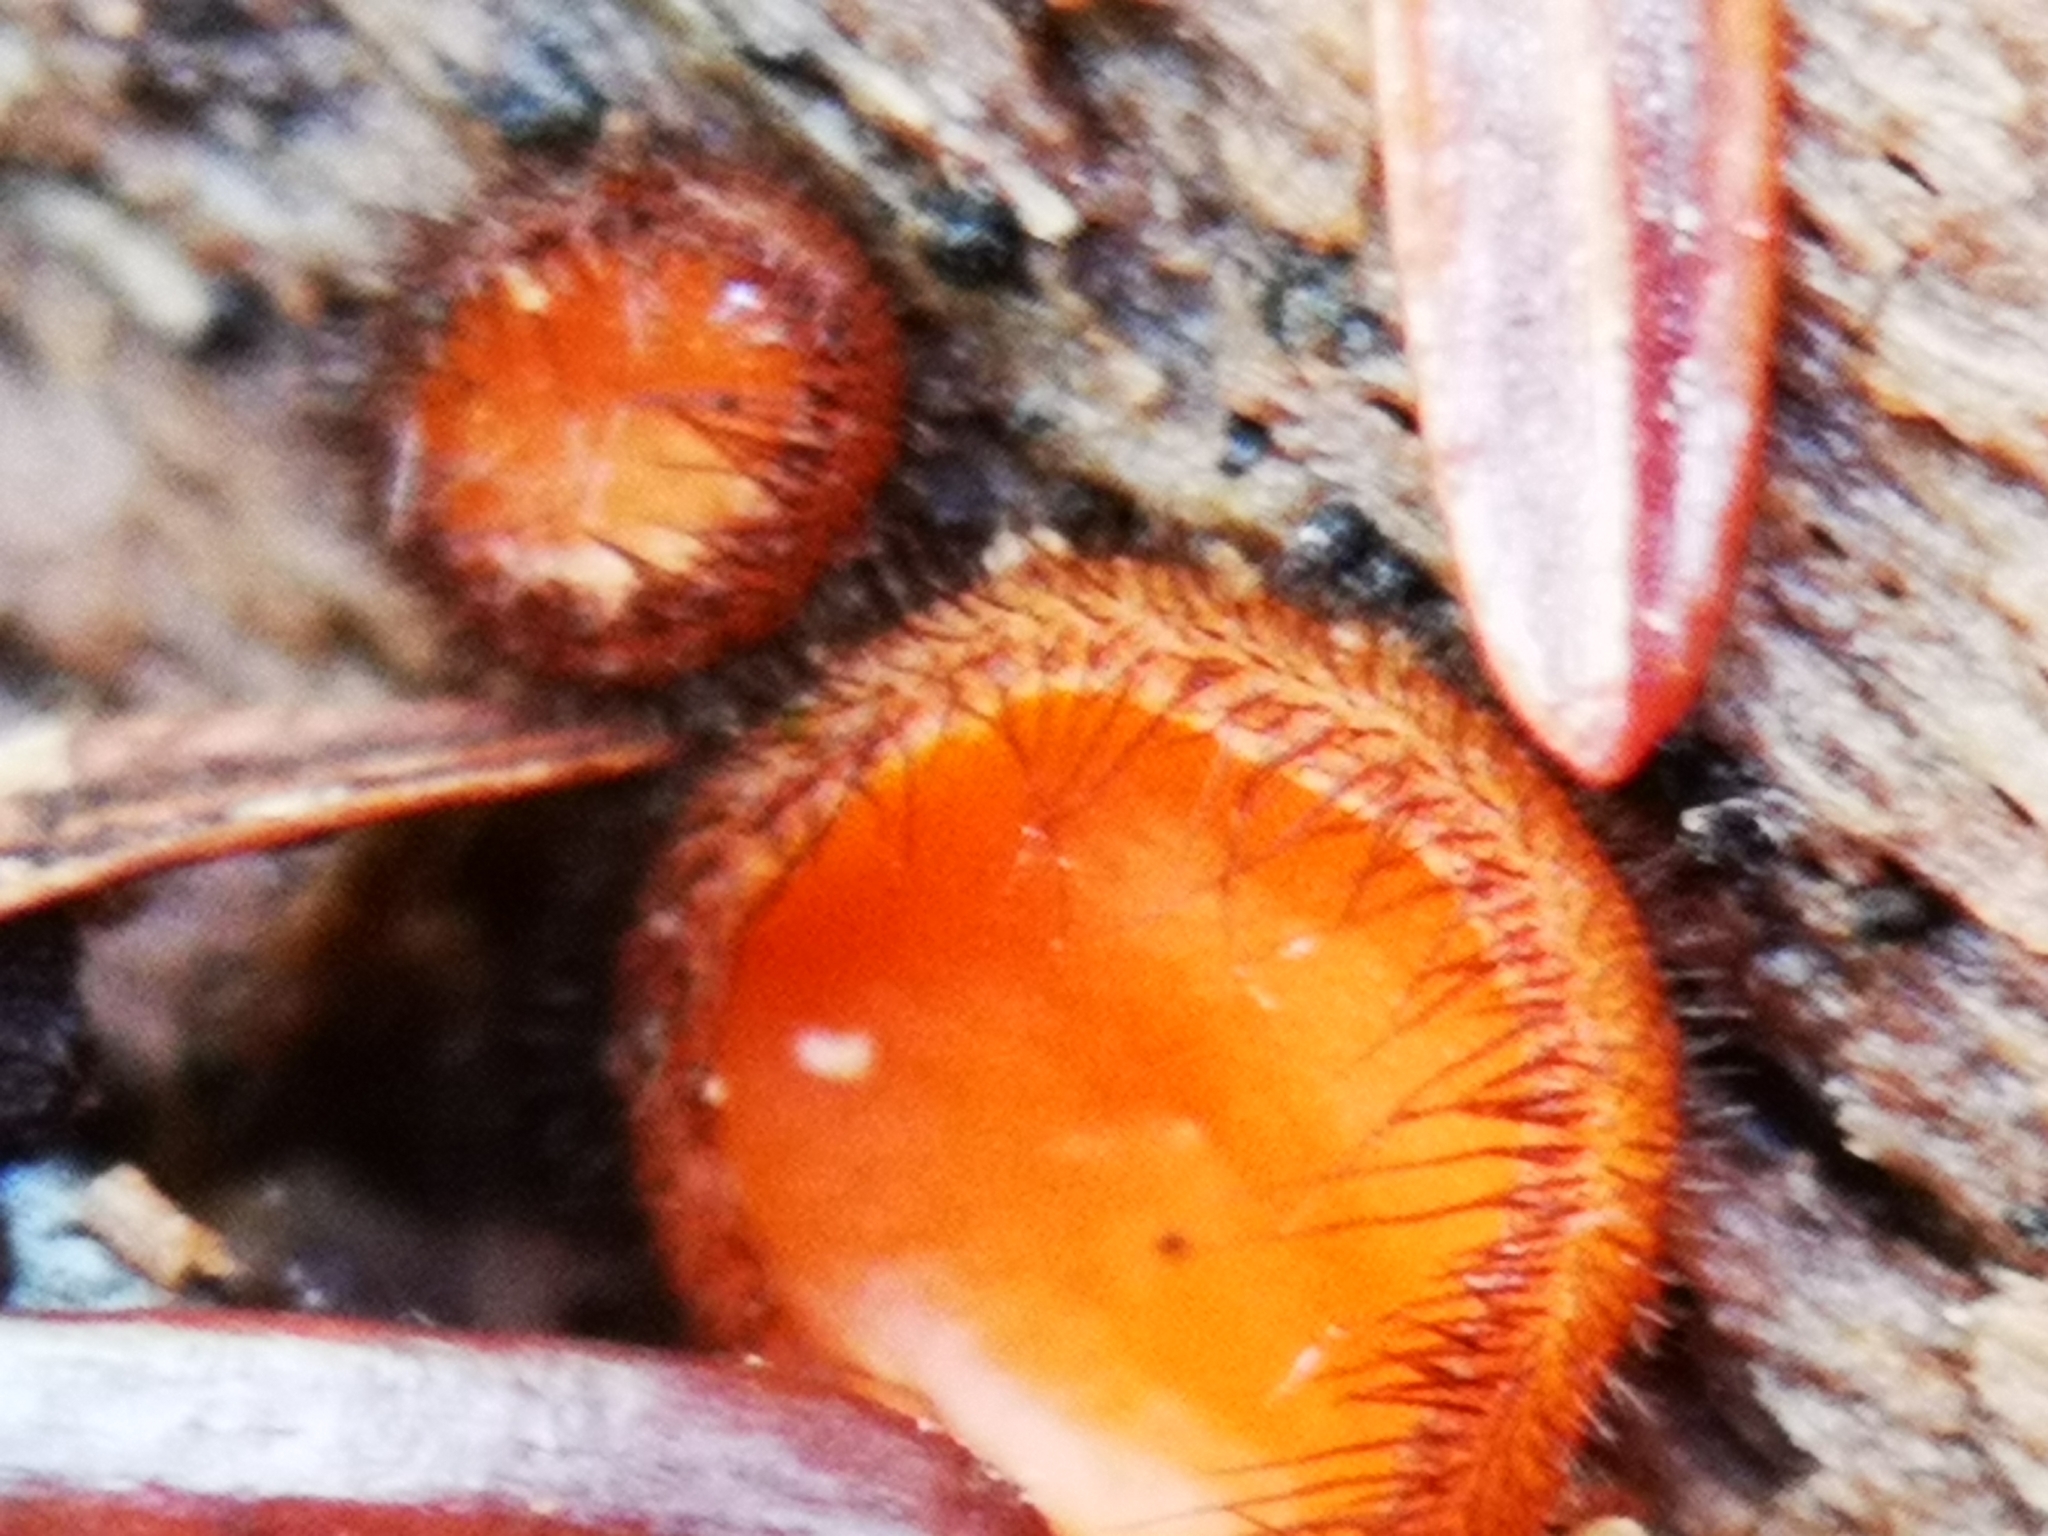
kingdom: Fungi
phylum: Ascomycota
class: Pezizomycetes
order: Pezizales
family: Pyronemataceae
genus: Scutellinia
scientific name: Scutellinia
